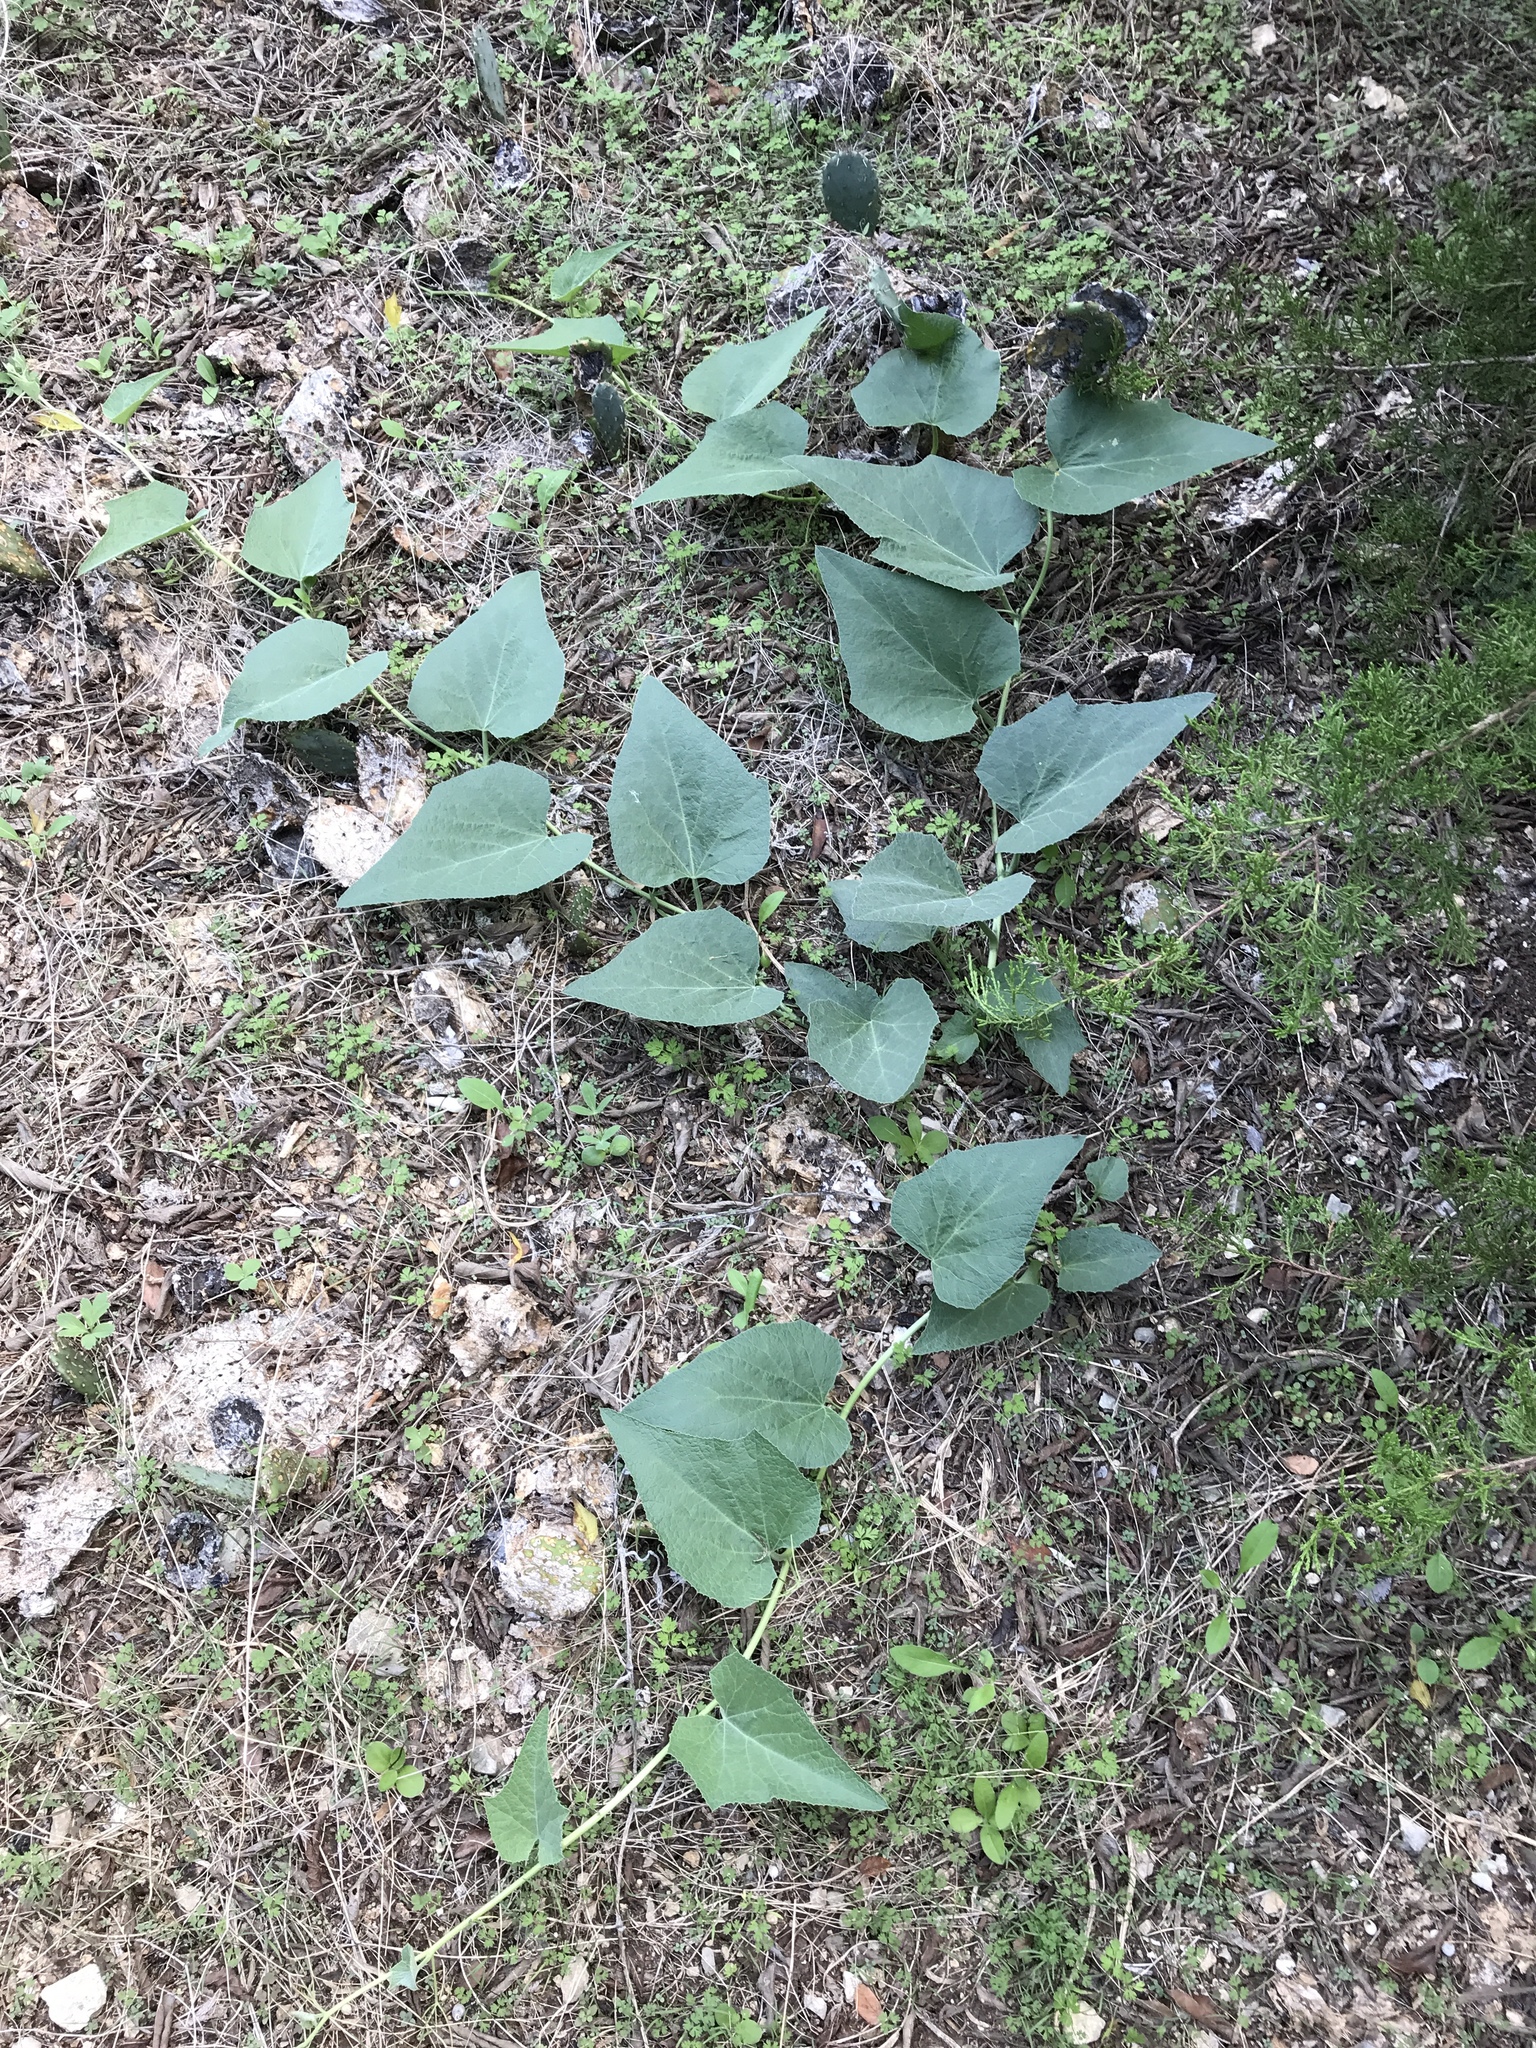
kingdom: Plantae
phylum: Tracheophyta
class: Magnoliopsida
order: Cucurbitales
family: Cucurbitaceae
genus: Cucurbita
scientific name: Cucurbita foetidissima
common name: Buffalo gourd
